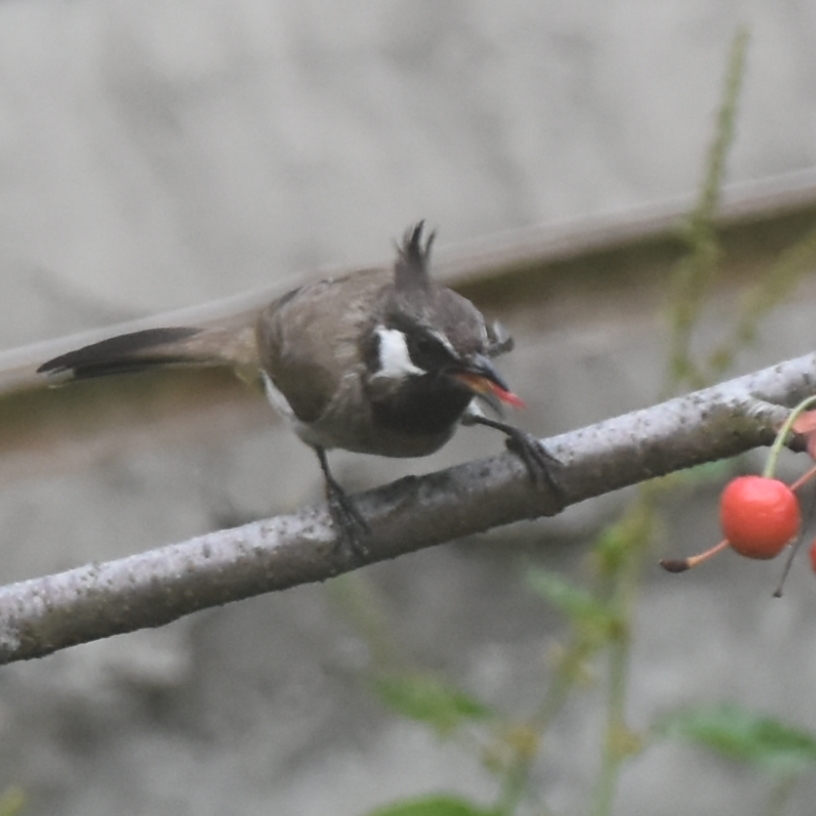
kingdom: Animalia
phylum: Chordata
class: Aves
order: Passeriformes
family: Pycnonotidae
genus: Pycnonotus
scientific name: Pycnonotus leucogenys
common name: Himalayan bulbul
